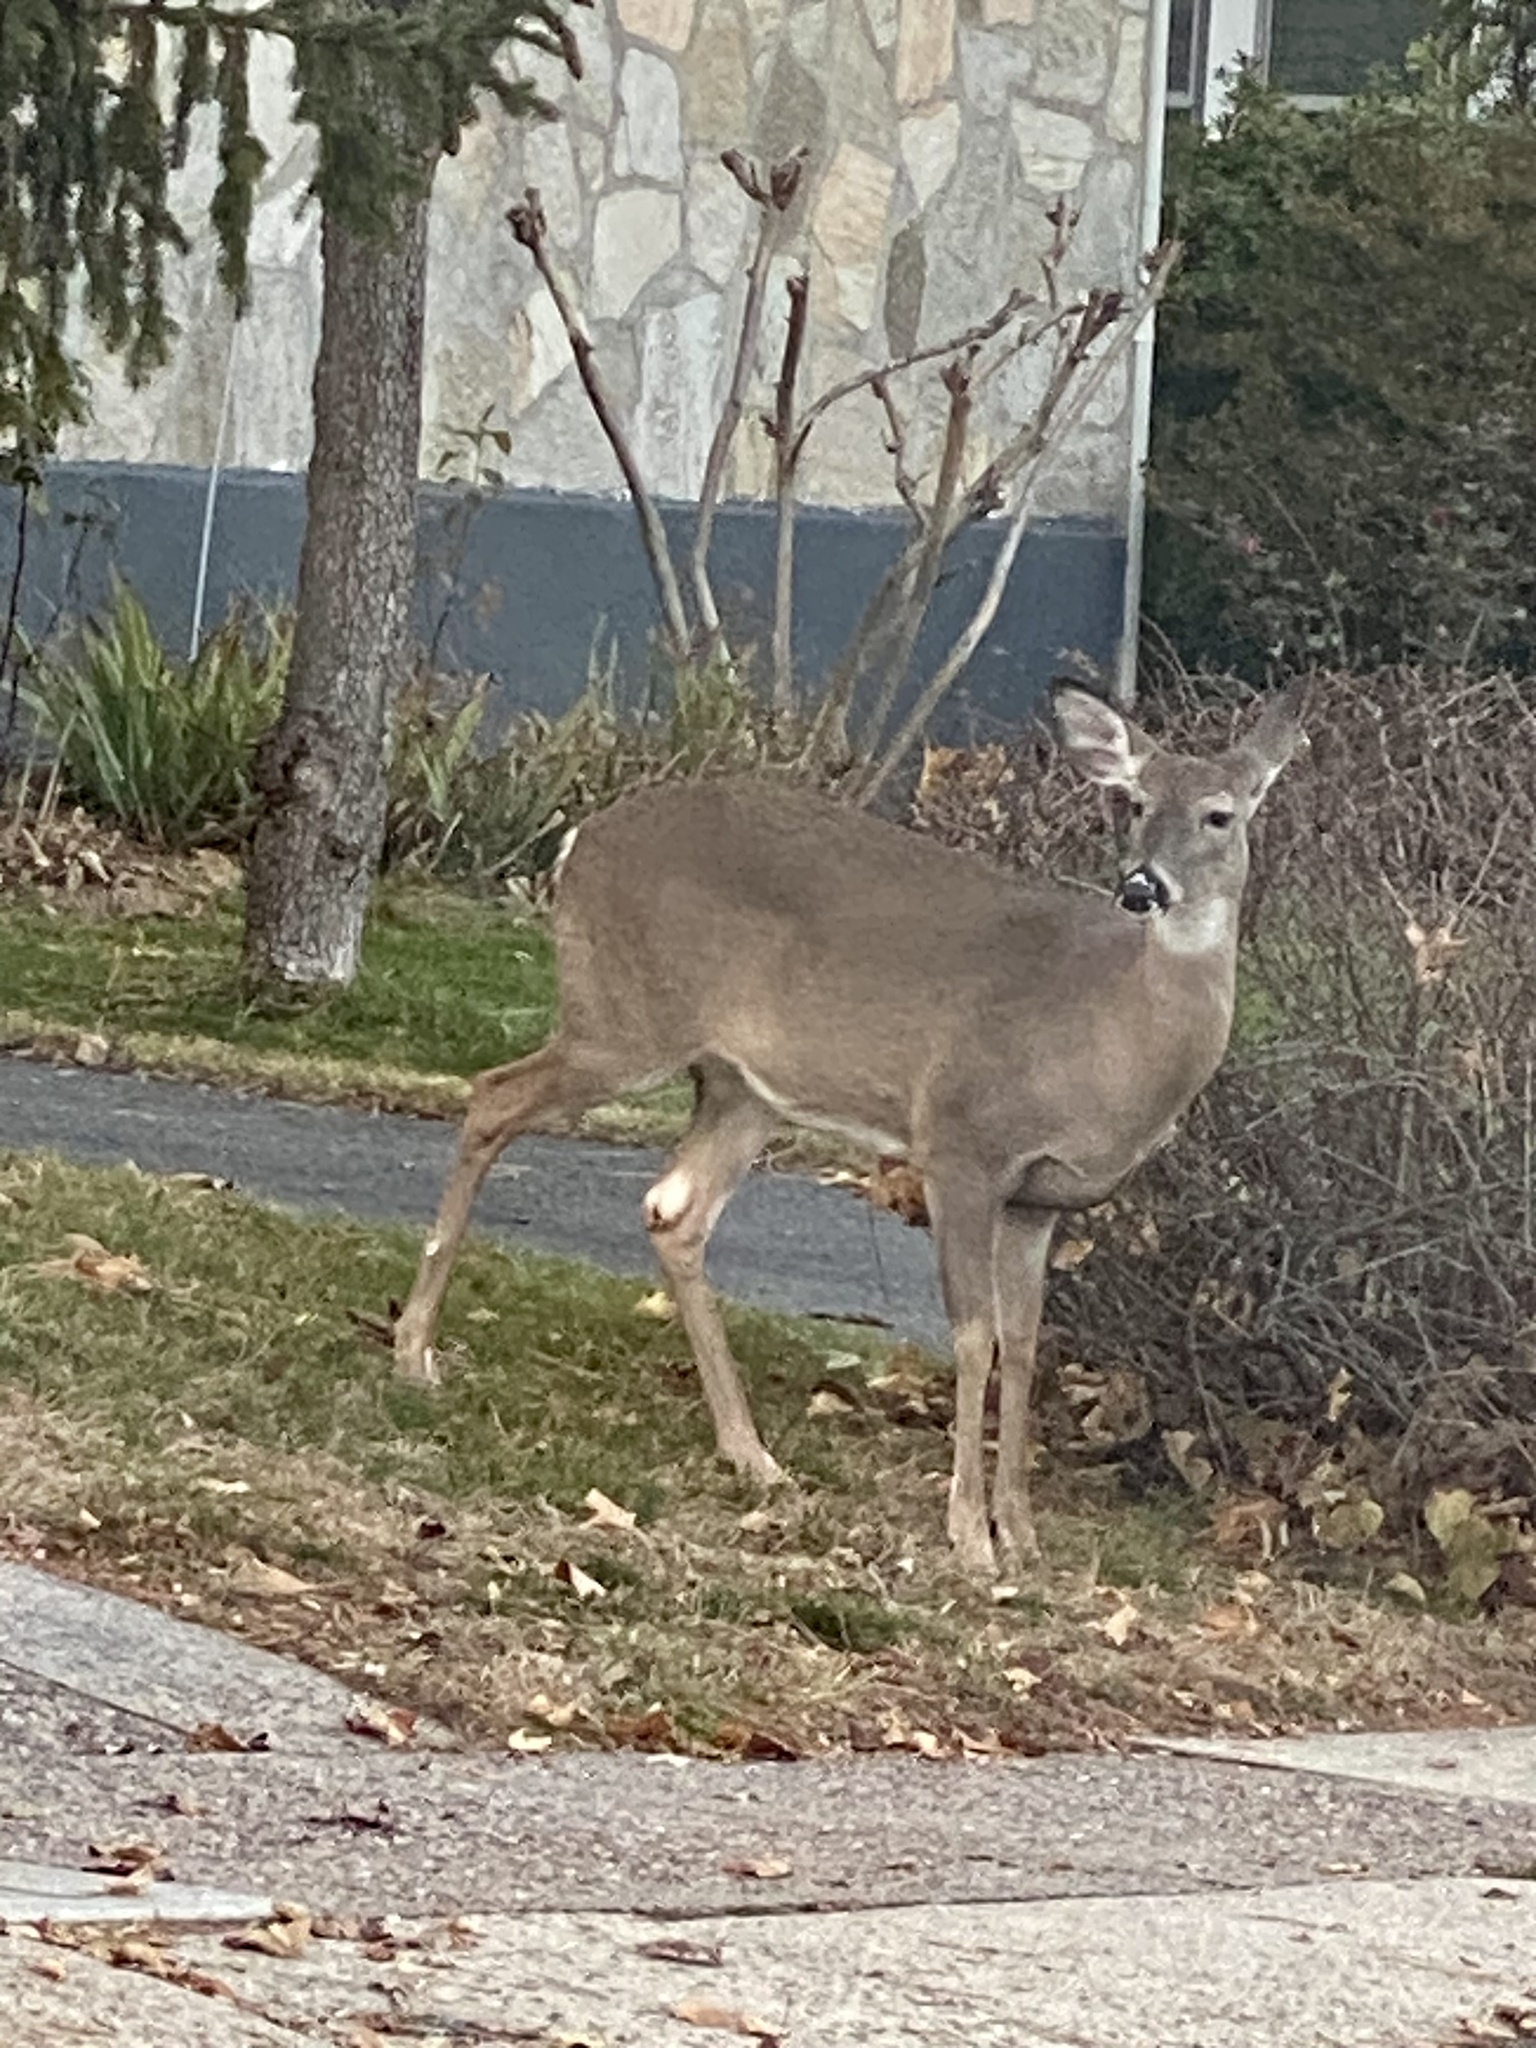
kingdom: Animalia
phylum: Chordata
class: Mammalia
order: Artiodactyla
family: Cervidae
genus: Odocoileus
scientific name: Odocoileus virginianus
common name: White-tailed deer
